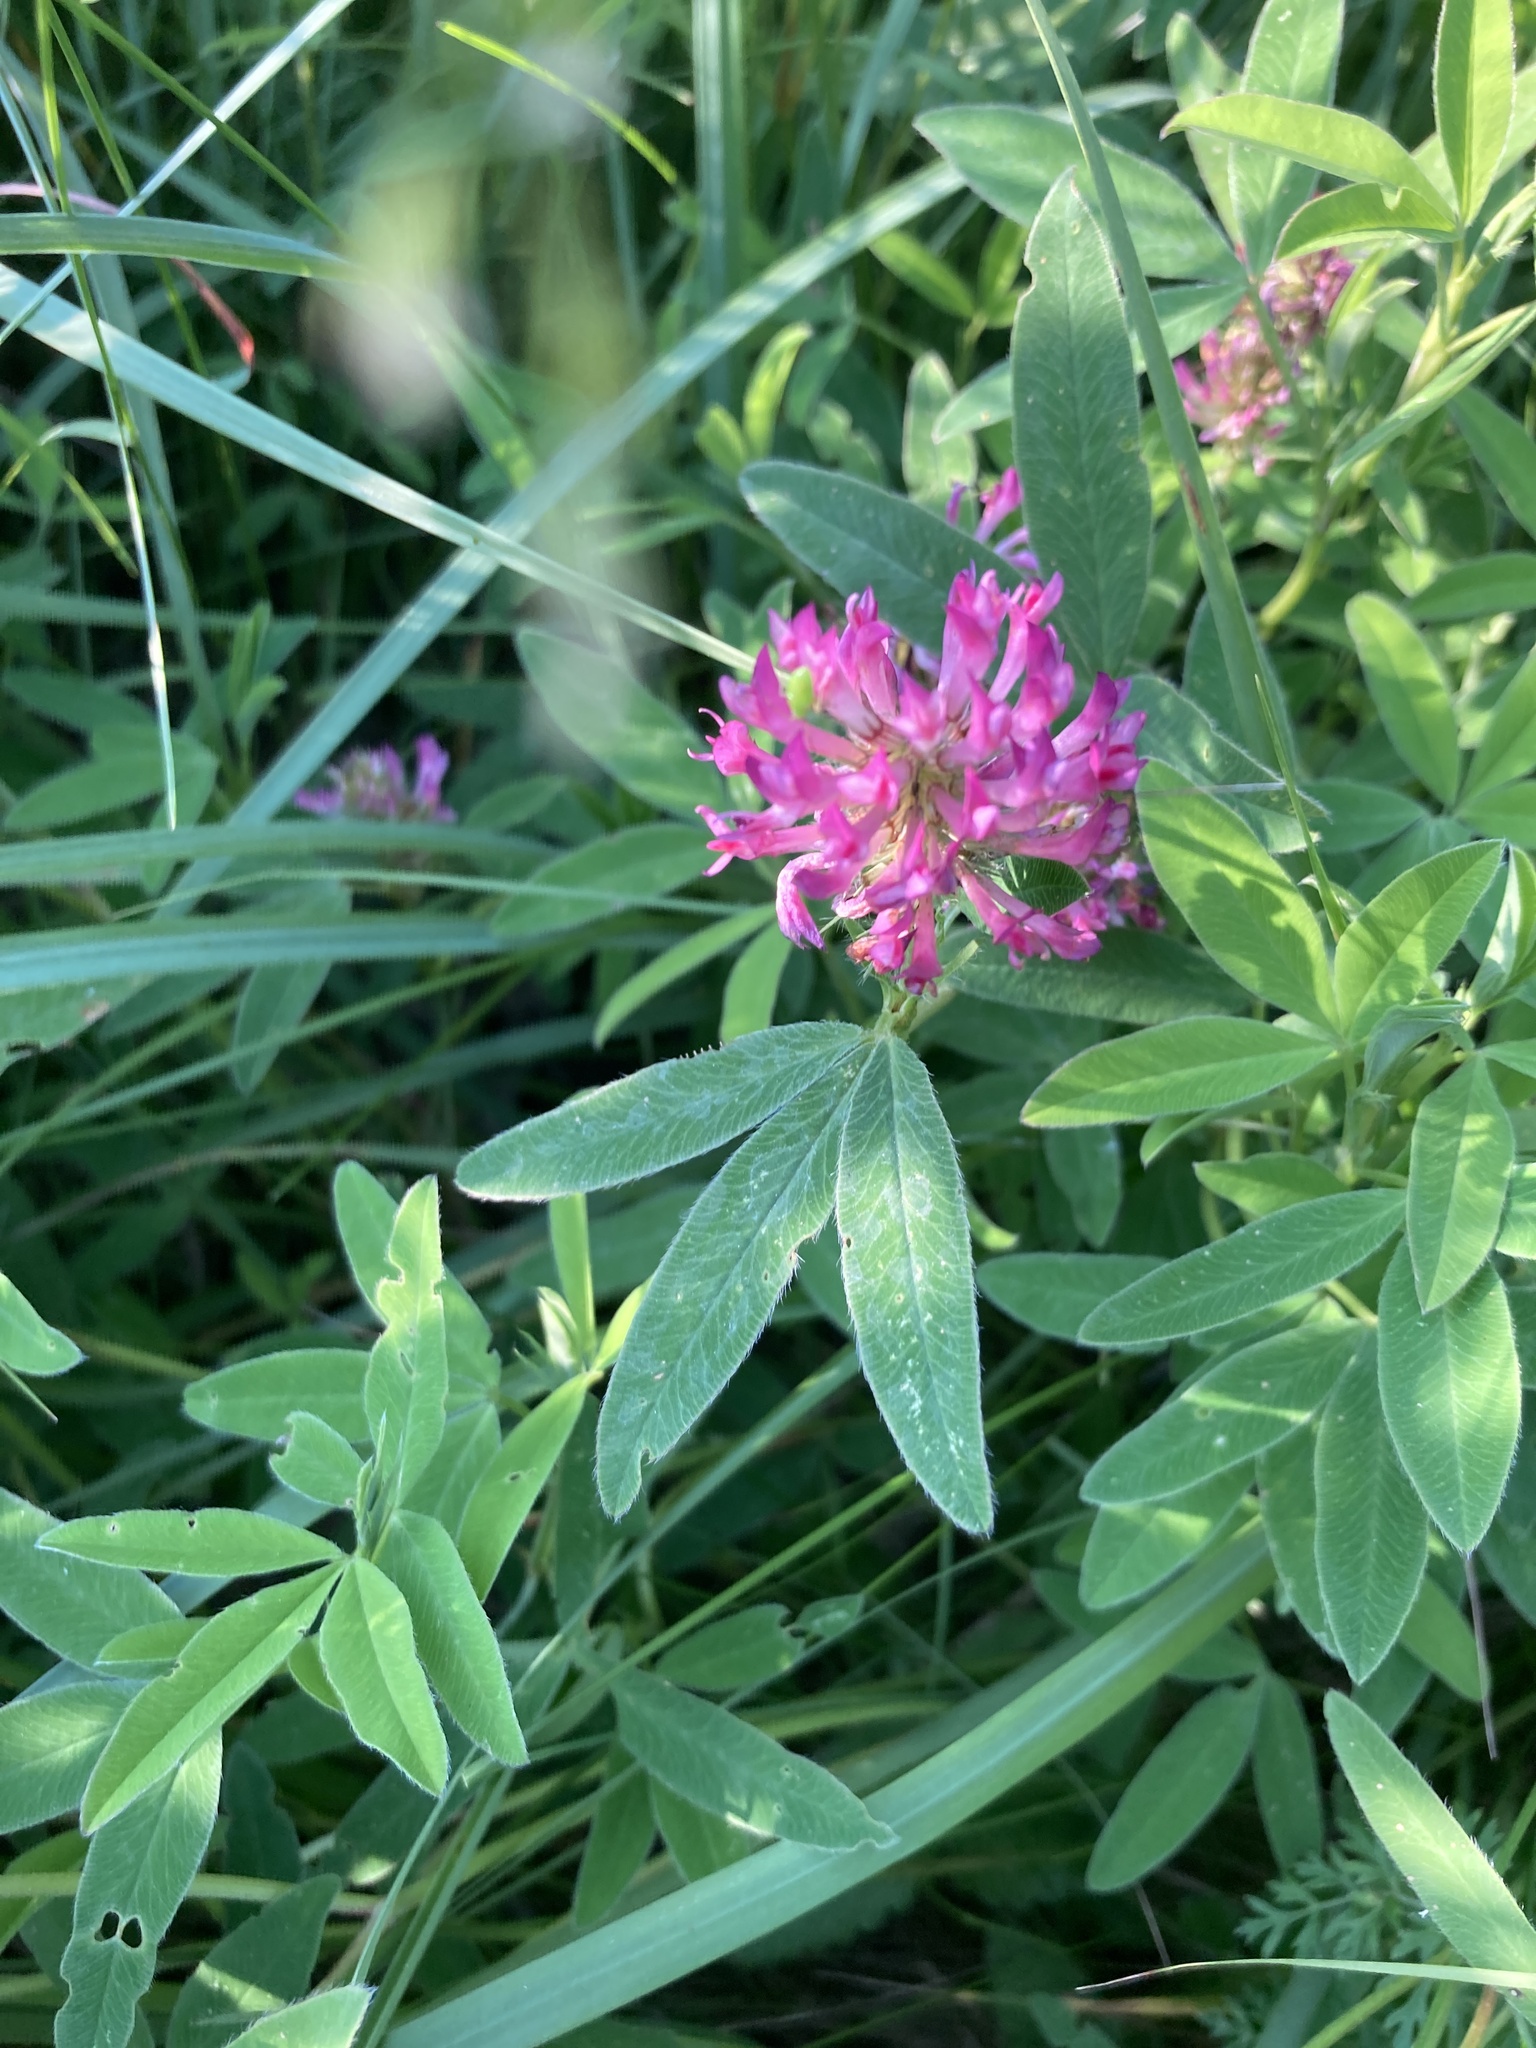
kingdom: Plantae
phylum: Tracheophyta
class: Magnoliopsida
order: Fabales
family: Fabaceae
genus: Trifolium
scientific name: Trifolium medium
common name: Zigzag clover
